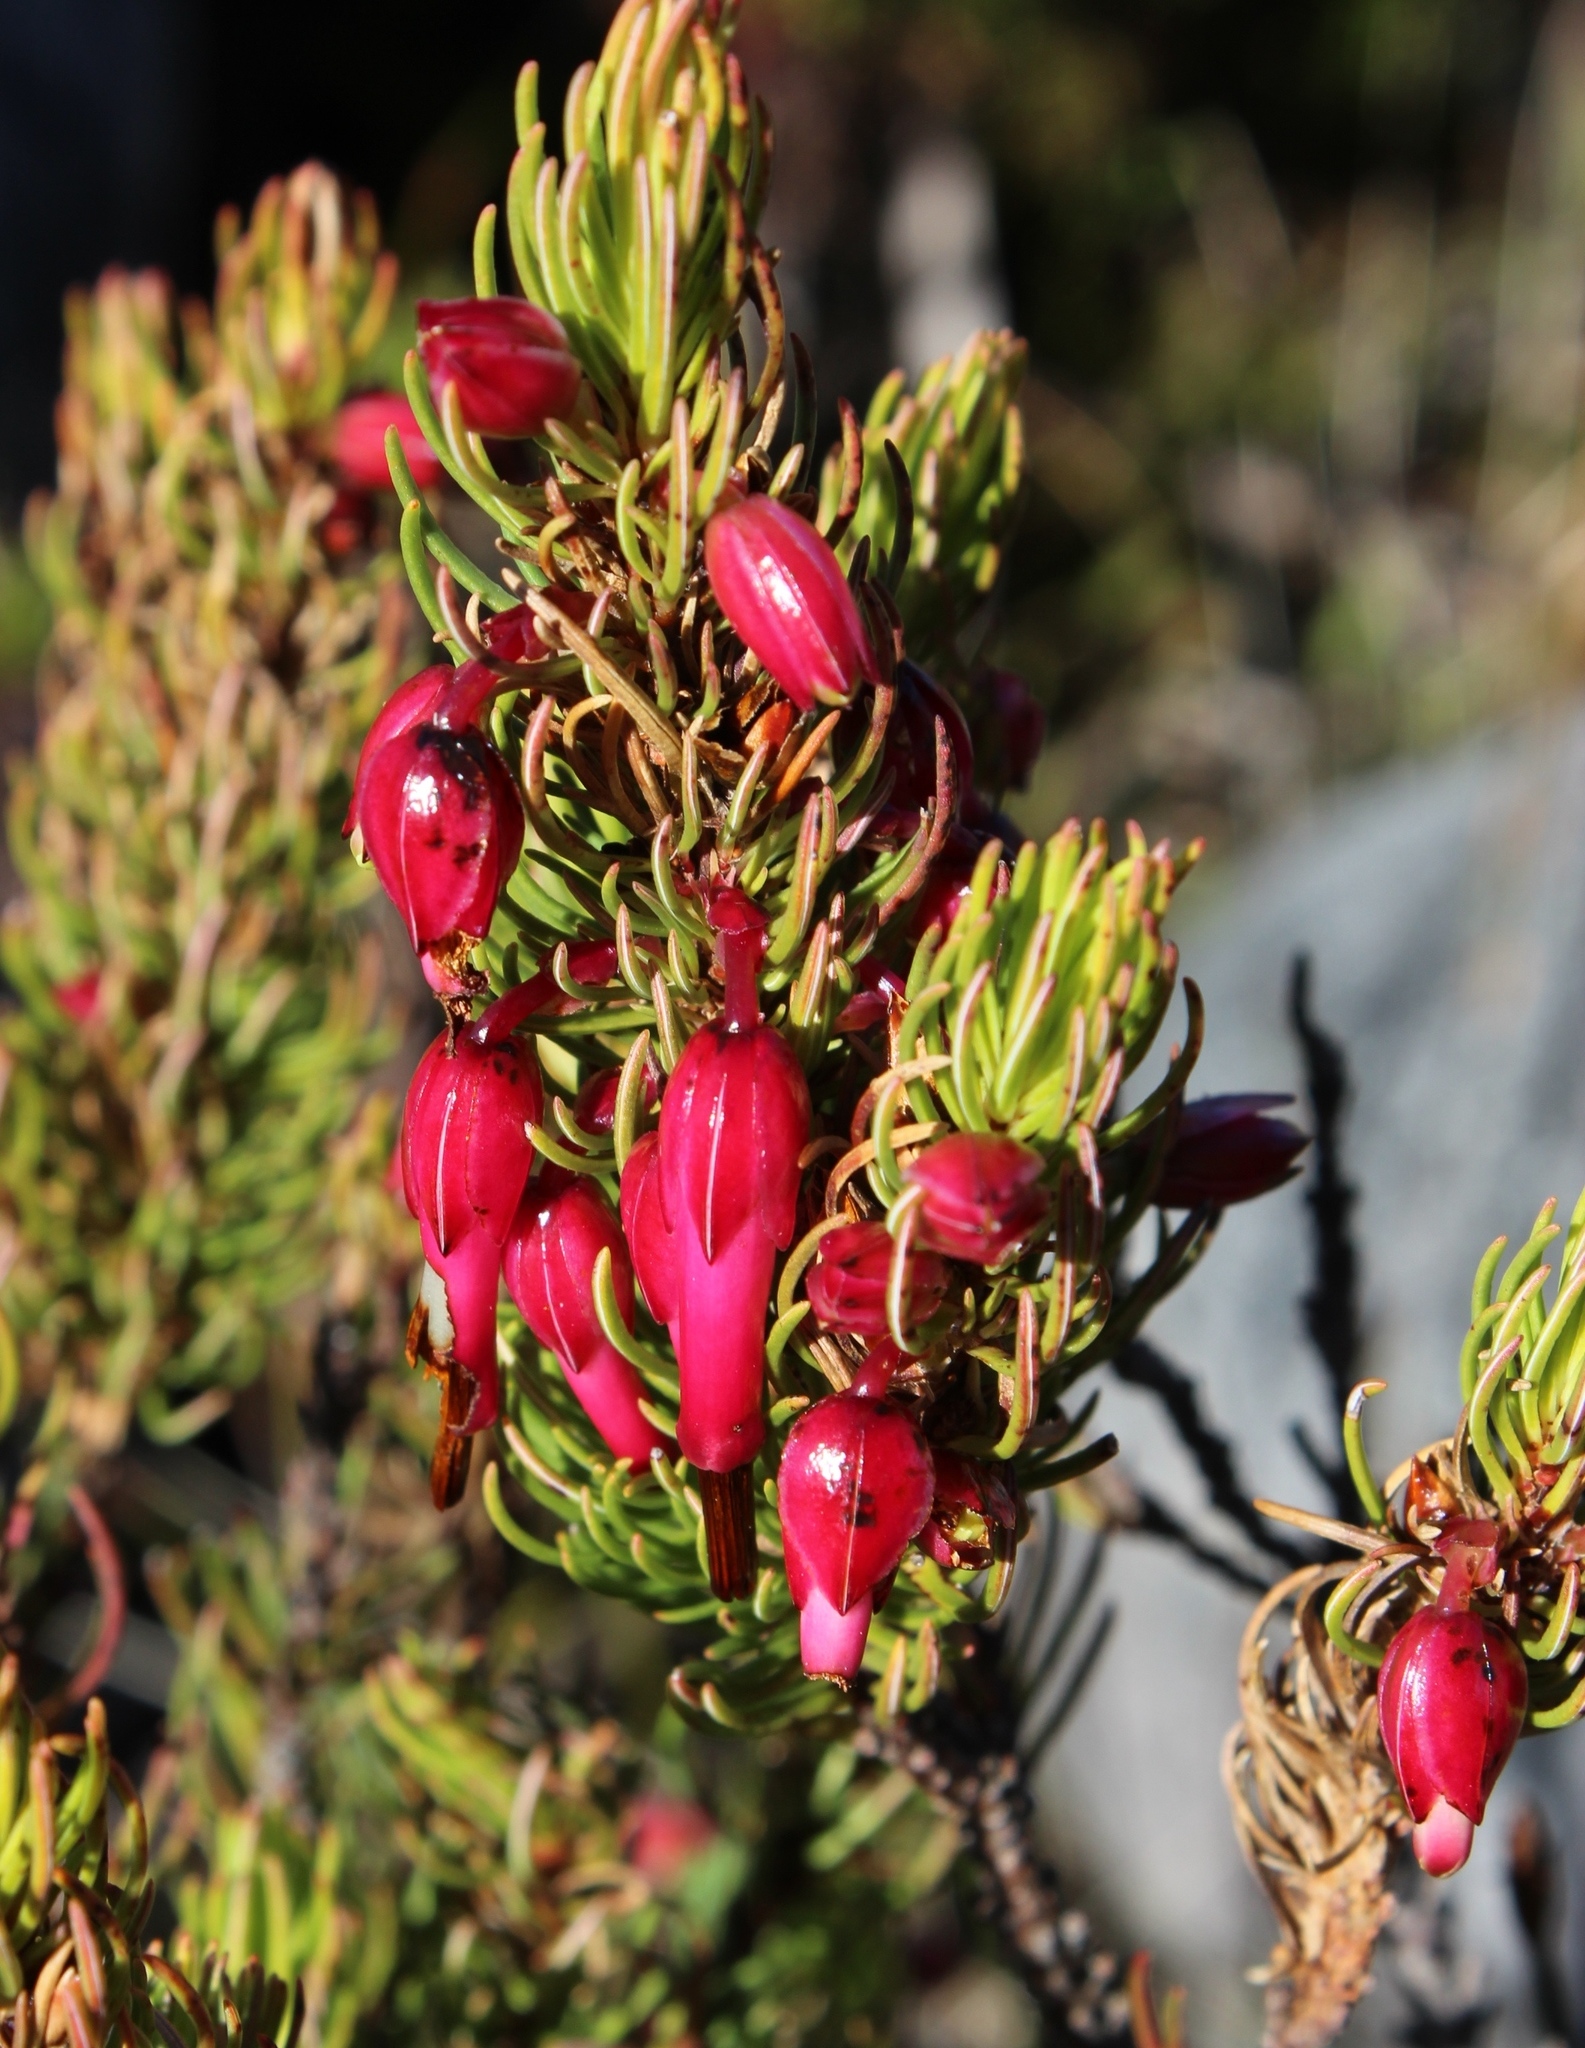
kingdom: Plantae
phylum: Tracheophyta
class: Magnoliopsida
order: Ericales
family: Ericaceae
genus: Erica
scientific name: Erica plukenetii
